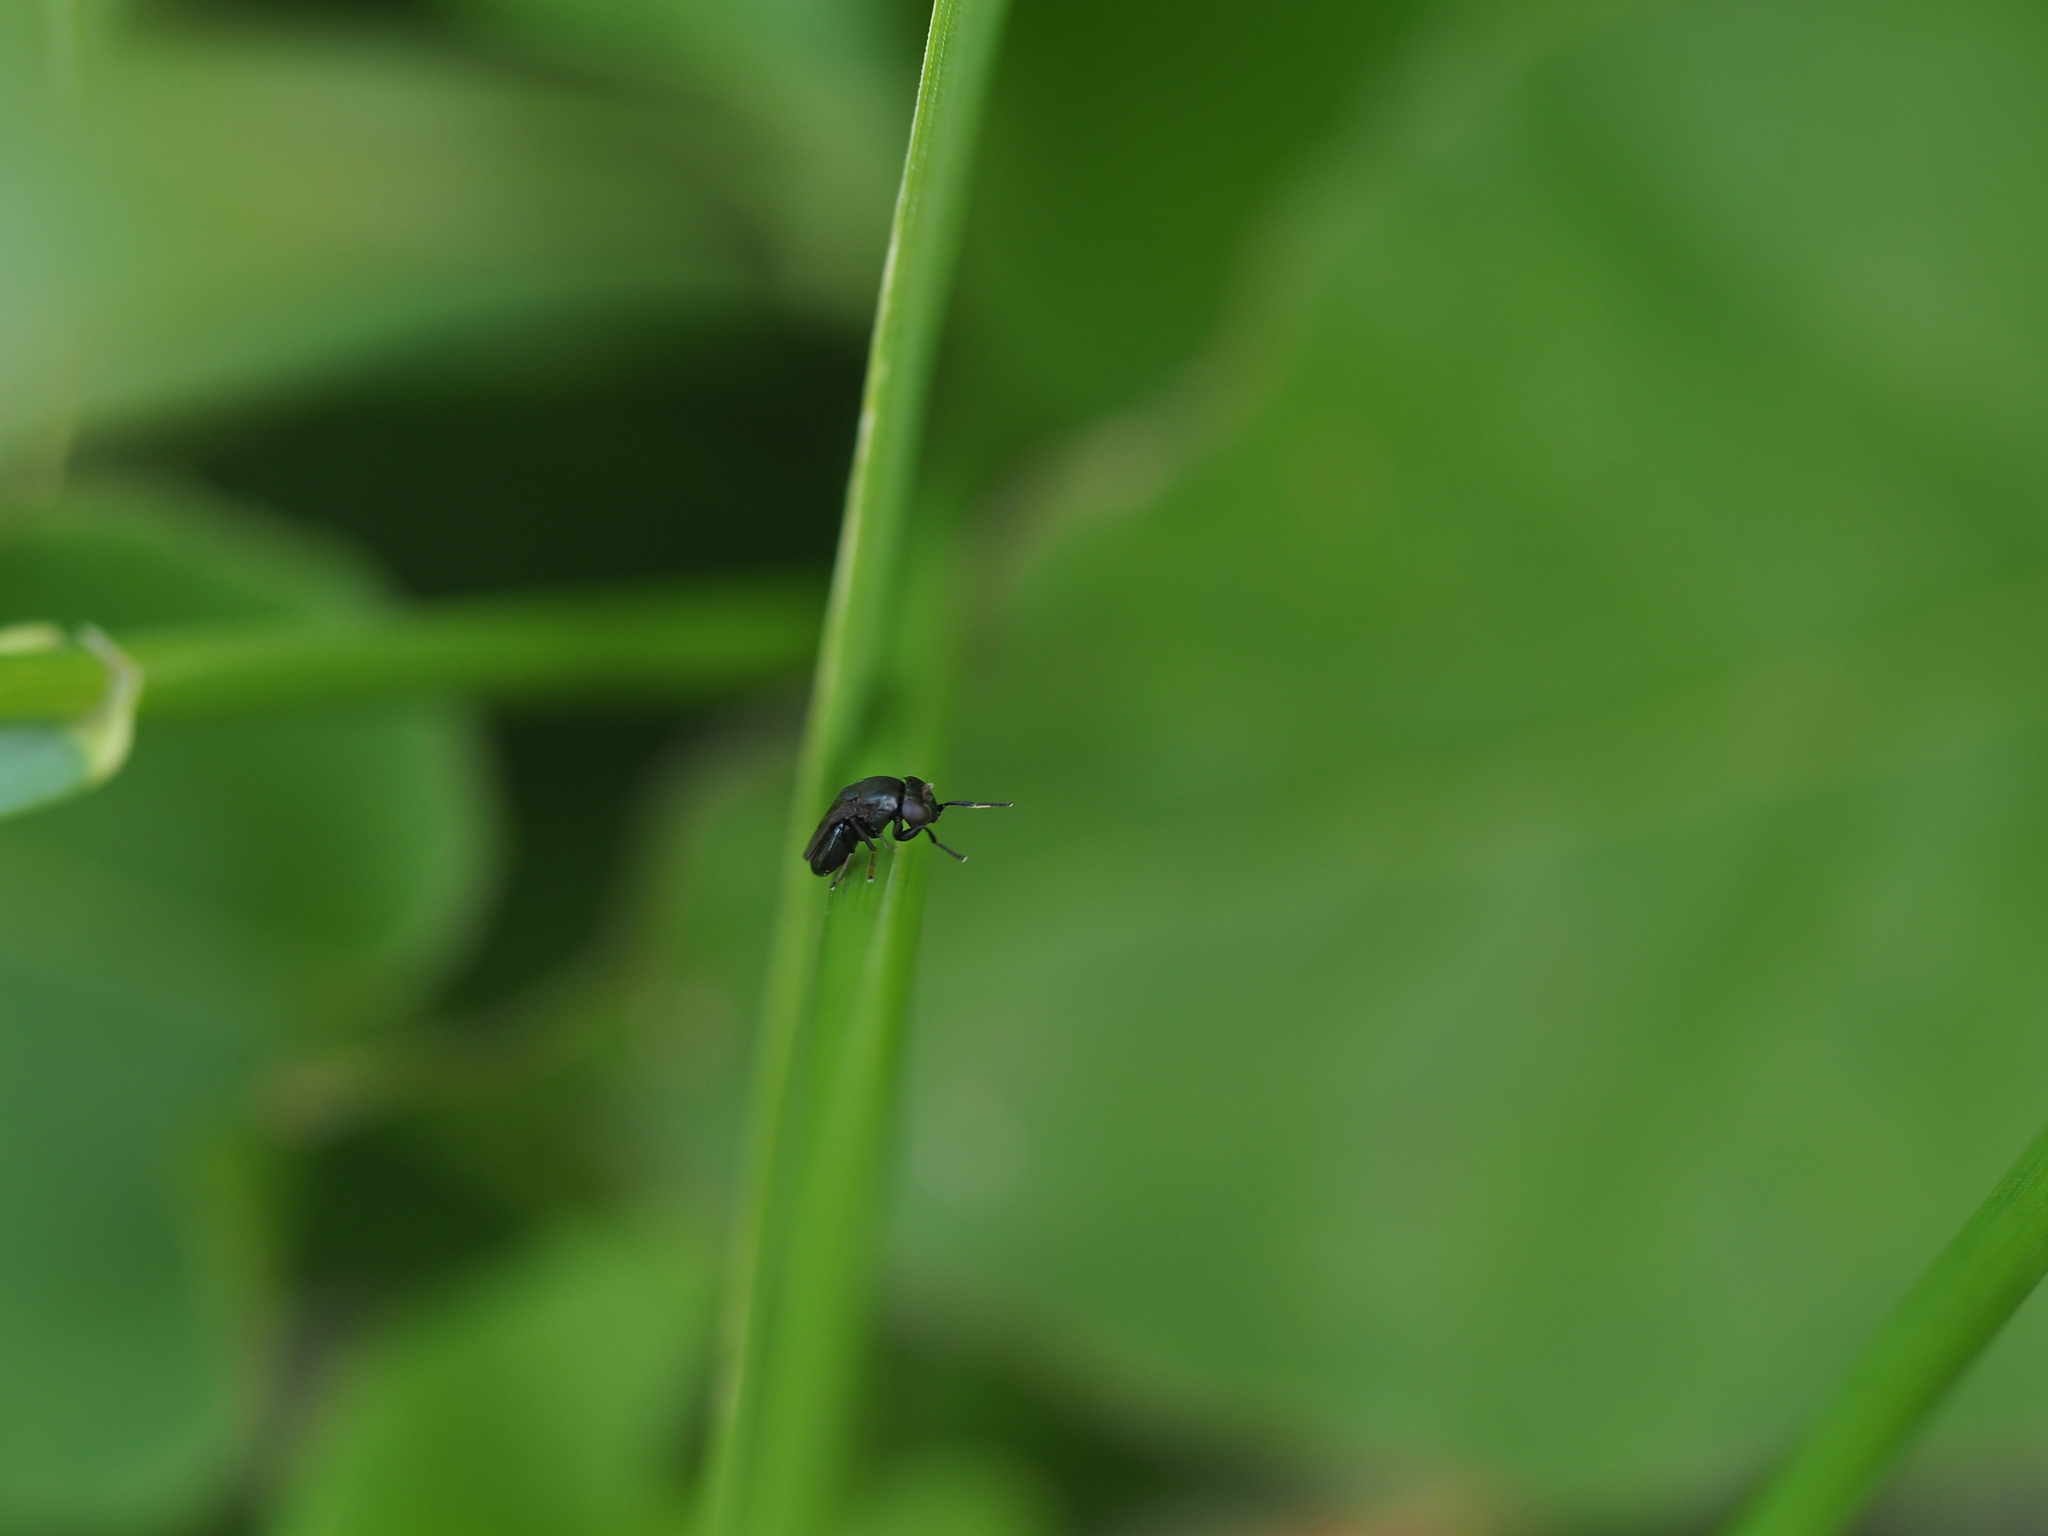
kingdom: Animalia
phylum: Arthropoda
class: Insecta
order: Diptera
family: Ephydridae
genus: Discomyza
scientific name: Discomyza incurva
